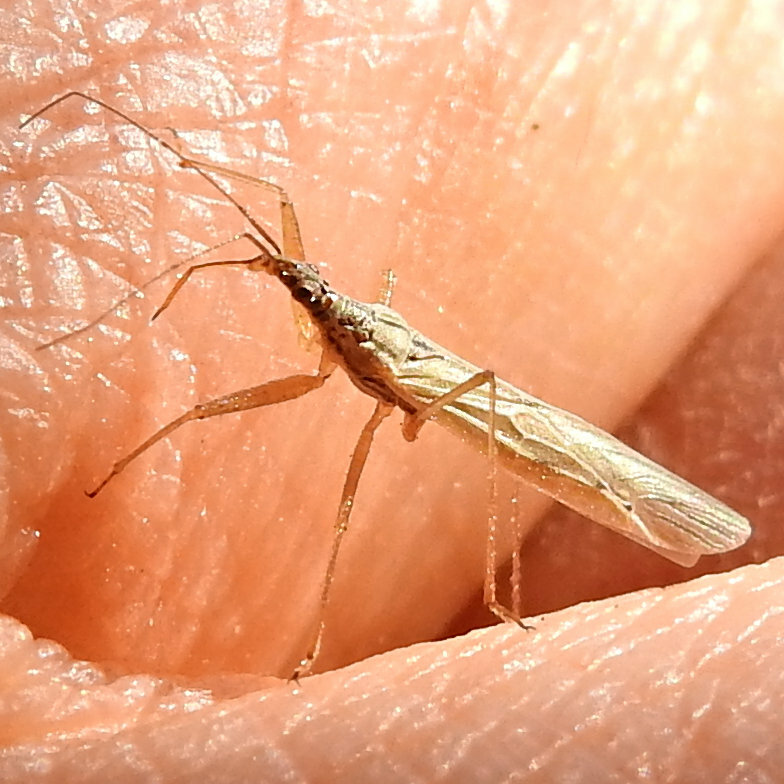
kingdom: Animalia
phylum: Arthropoda
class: Insecta
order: Hemiptera
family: Nabidae
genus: Nabis
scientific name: Nabis capsiformis
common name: Pale damsel bug
